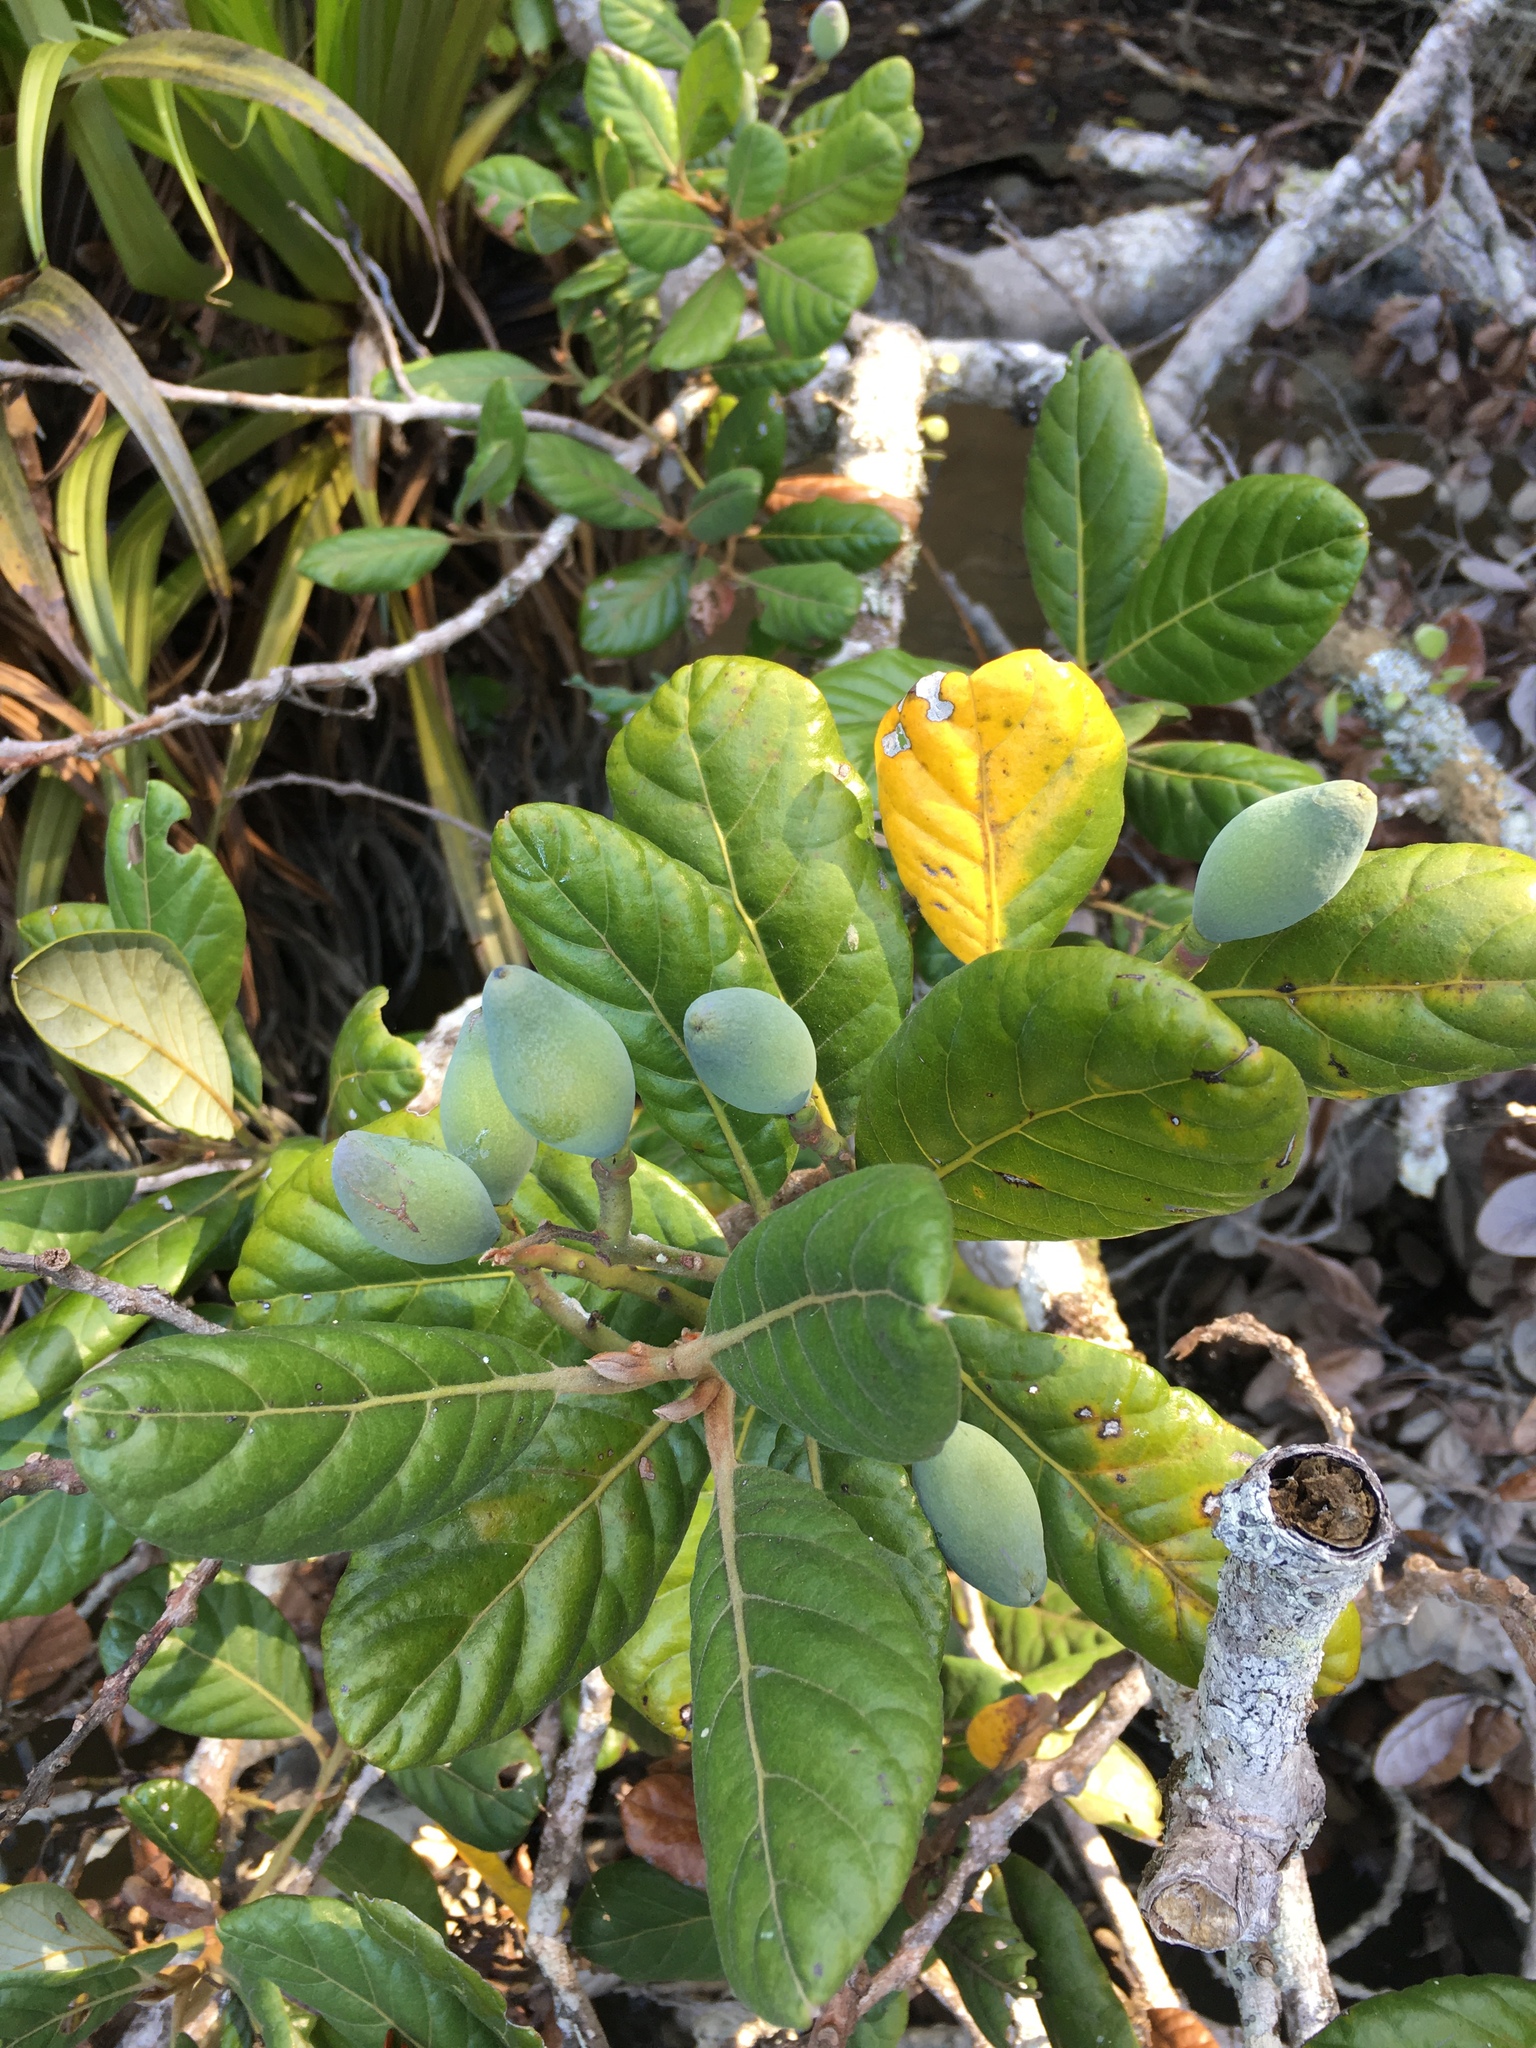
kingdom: Plantae
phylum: Tracheophyta
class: Magnoliopsida
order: Laurales
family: Lauraceae
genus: Beilschmiedia
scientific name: Beilschmiedia tarairi
